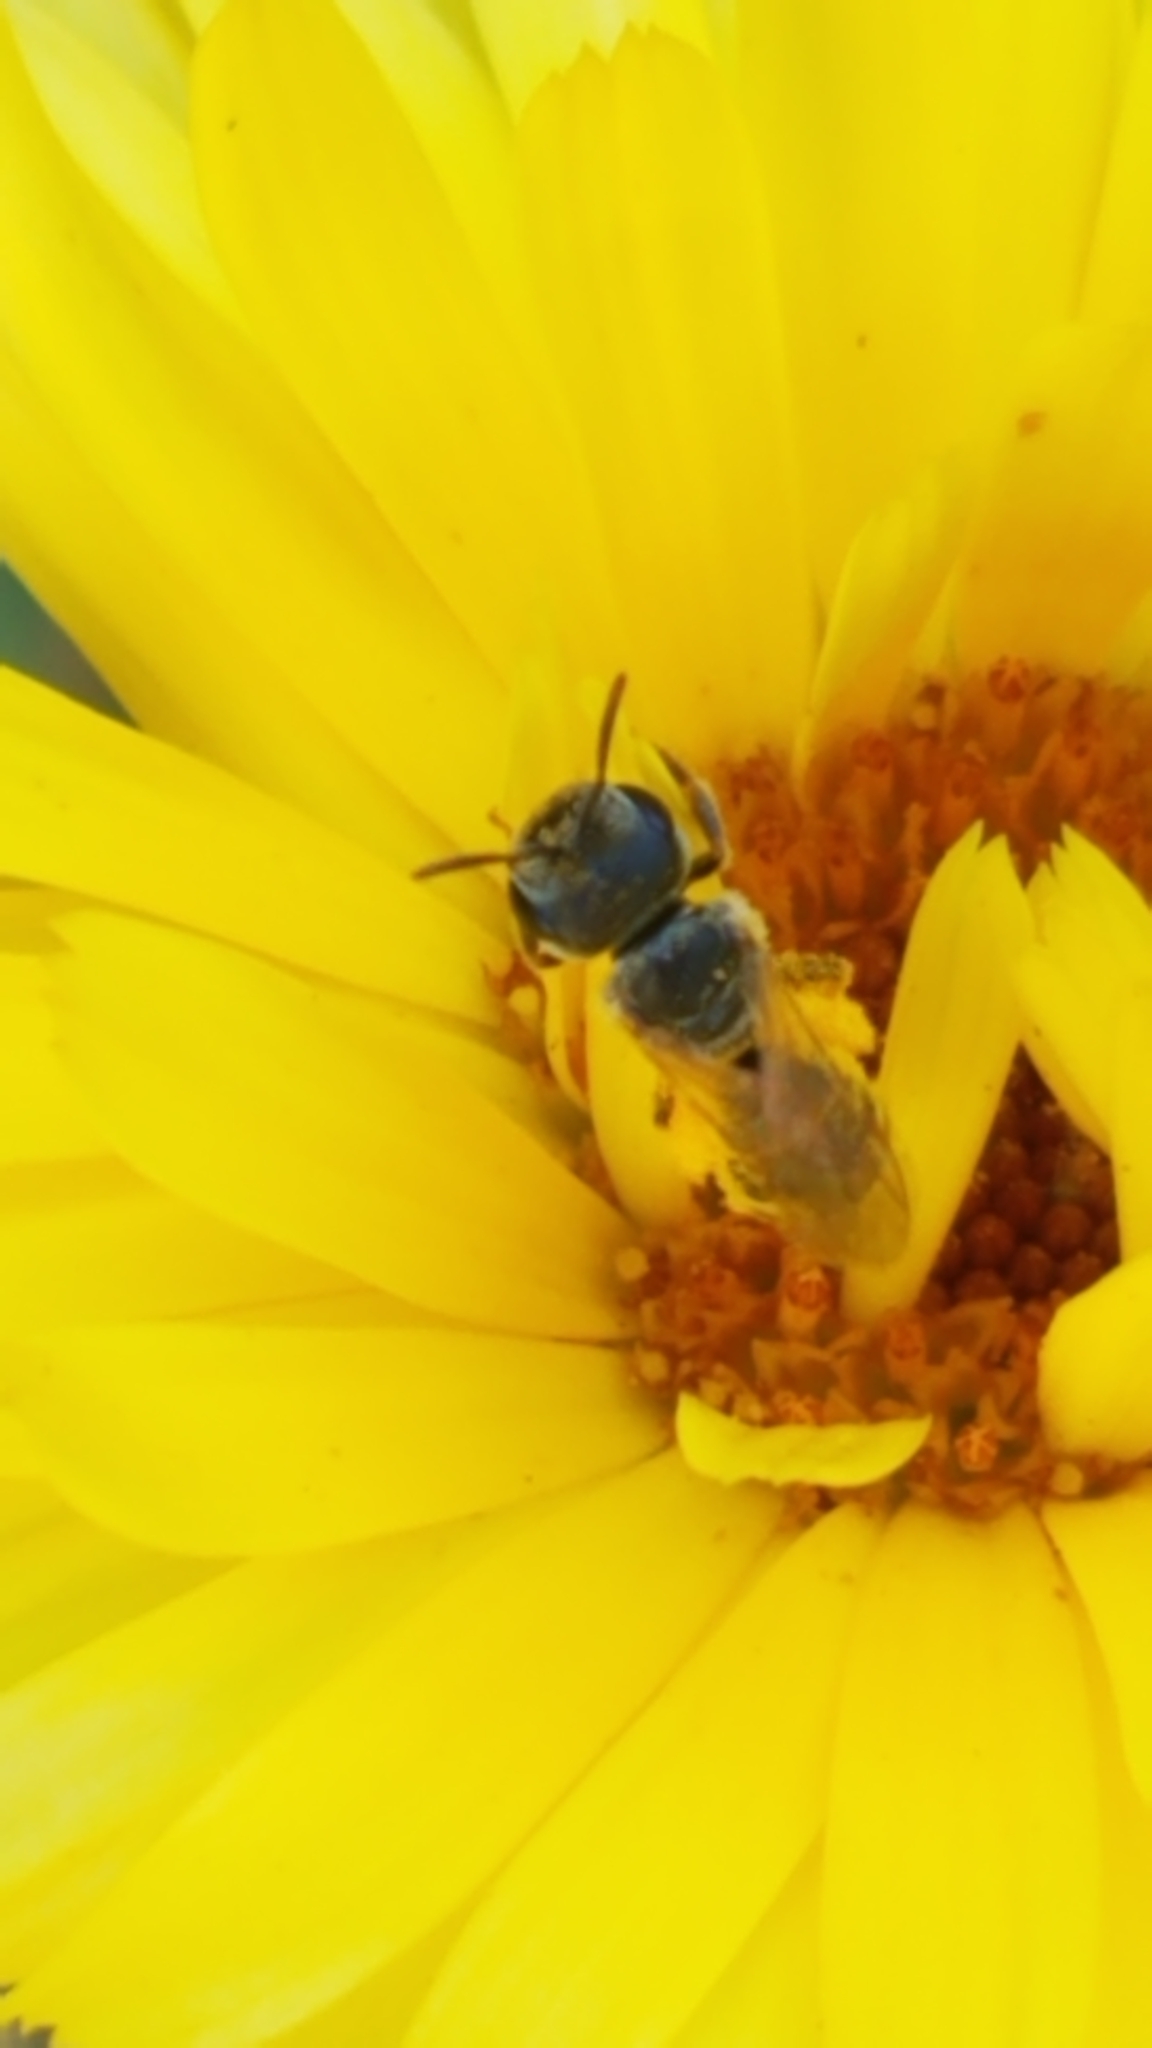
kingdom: Animalia
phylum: Arthropoda
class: Insecta
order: Hymenoptera
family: Halictidae
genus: Halictus
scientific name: Halictus ligatus
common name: Ligated furrow bee
